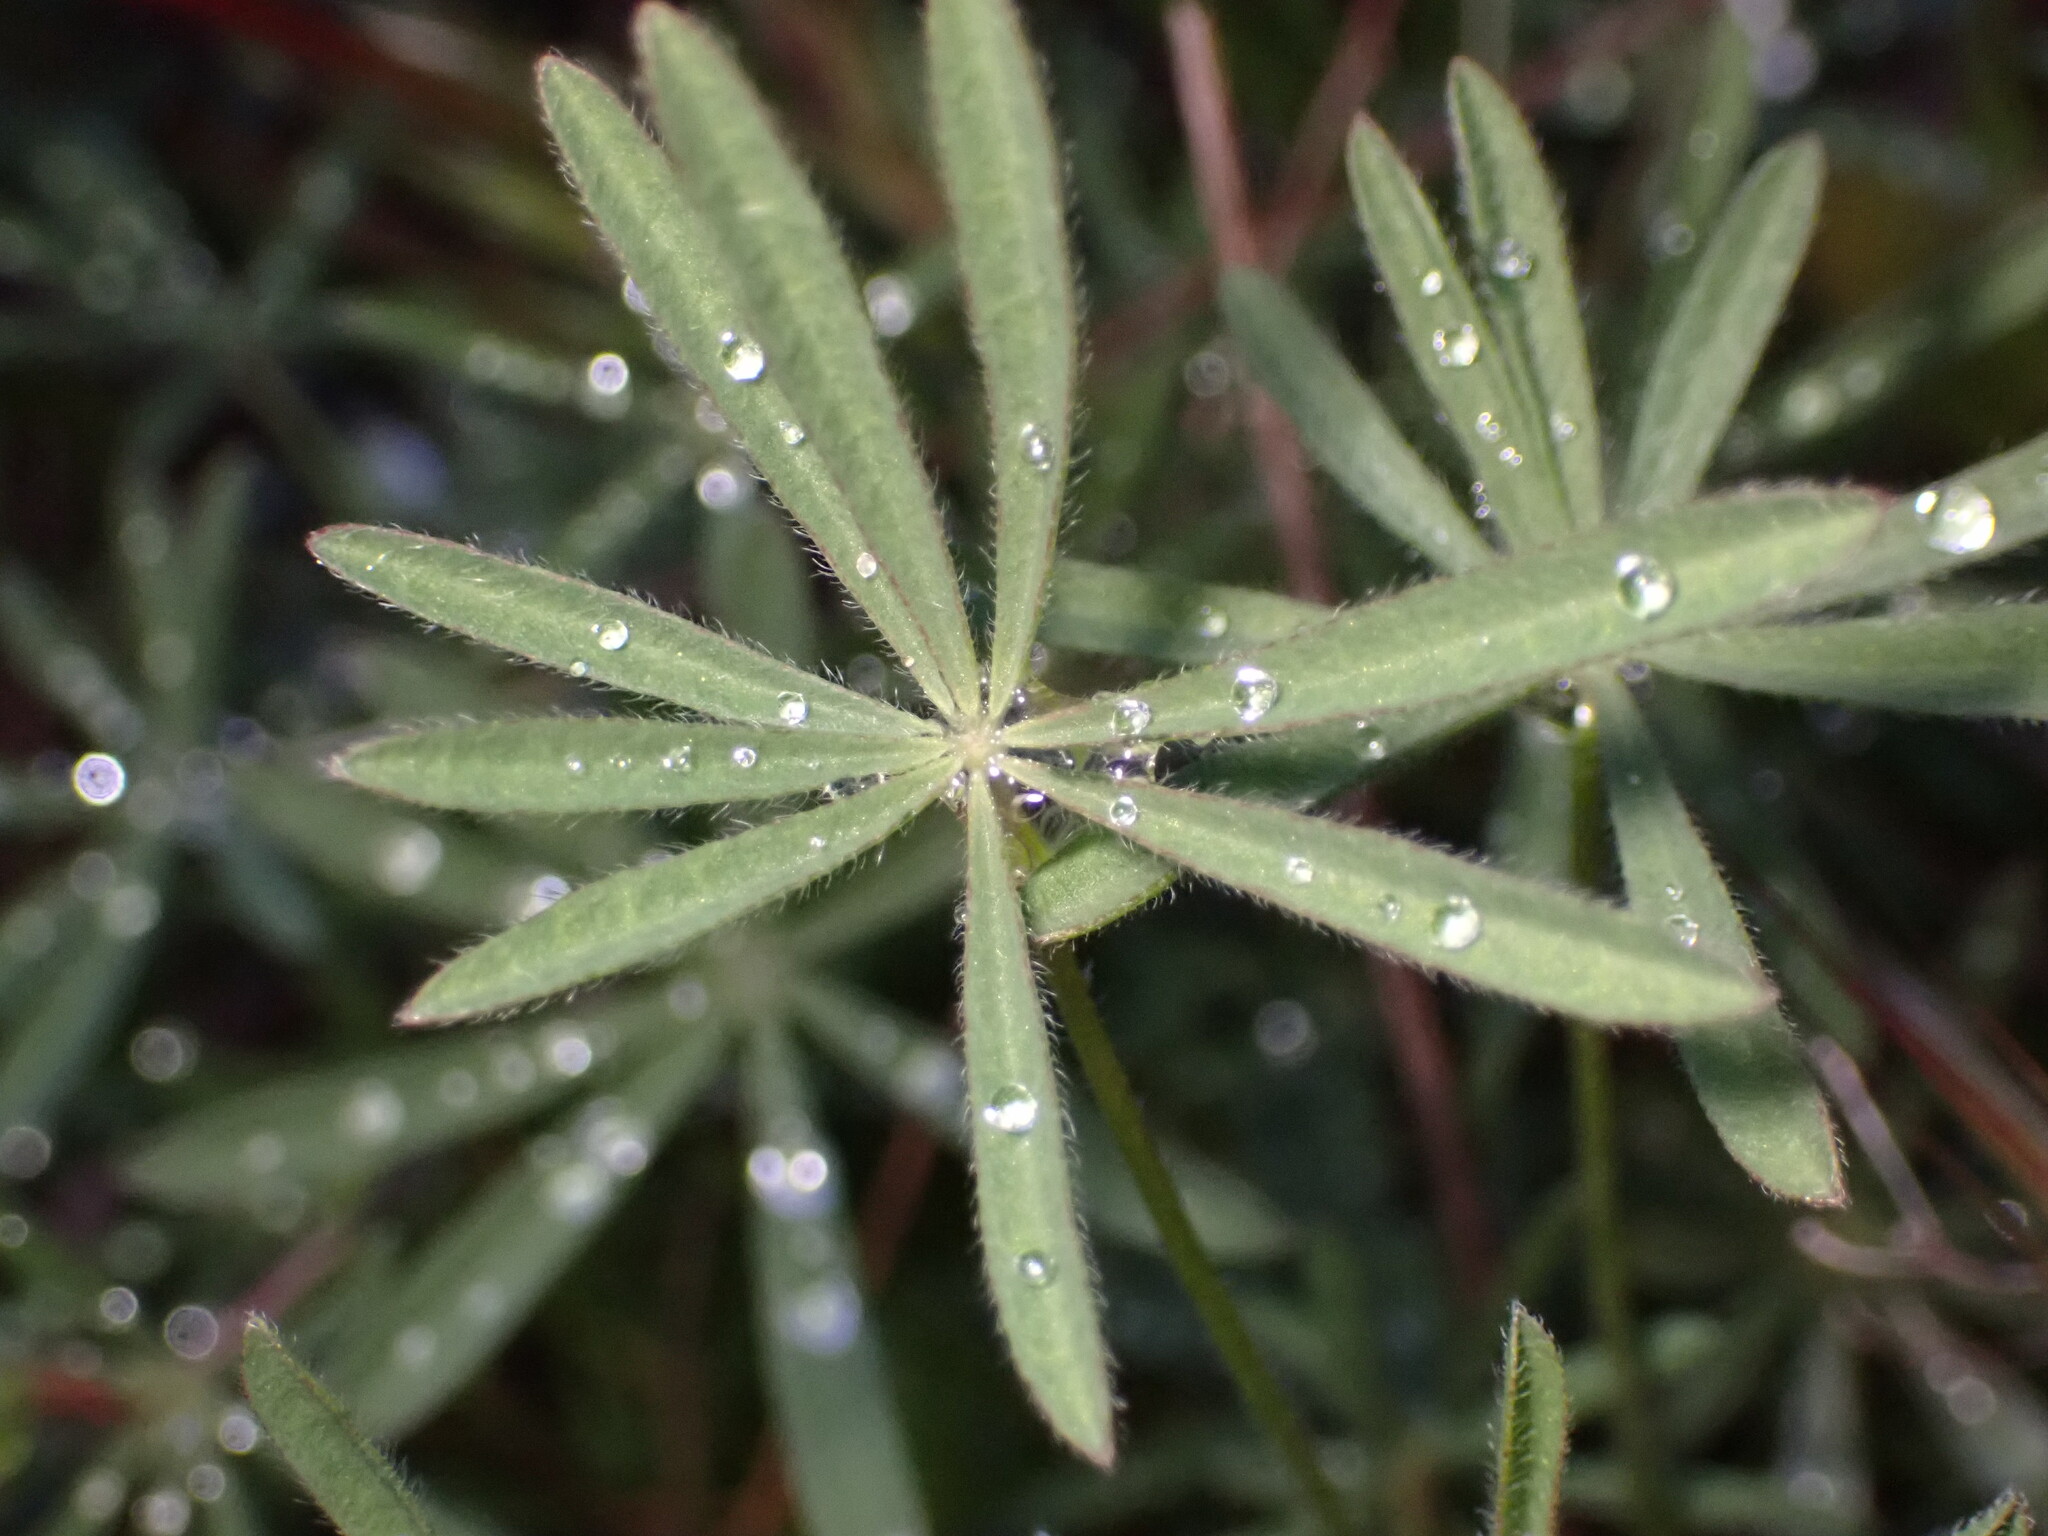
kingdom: Plantae
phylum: Tracheophyta
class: Magnoliopsida
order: Fabales
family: Fabaceae
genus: Lupinus
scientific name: Lupinus bicolor
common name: Miniature lupine
